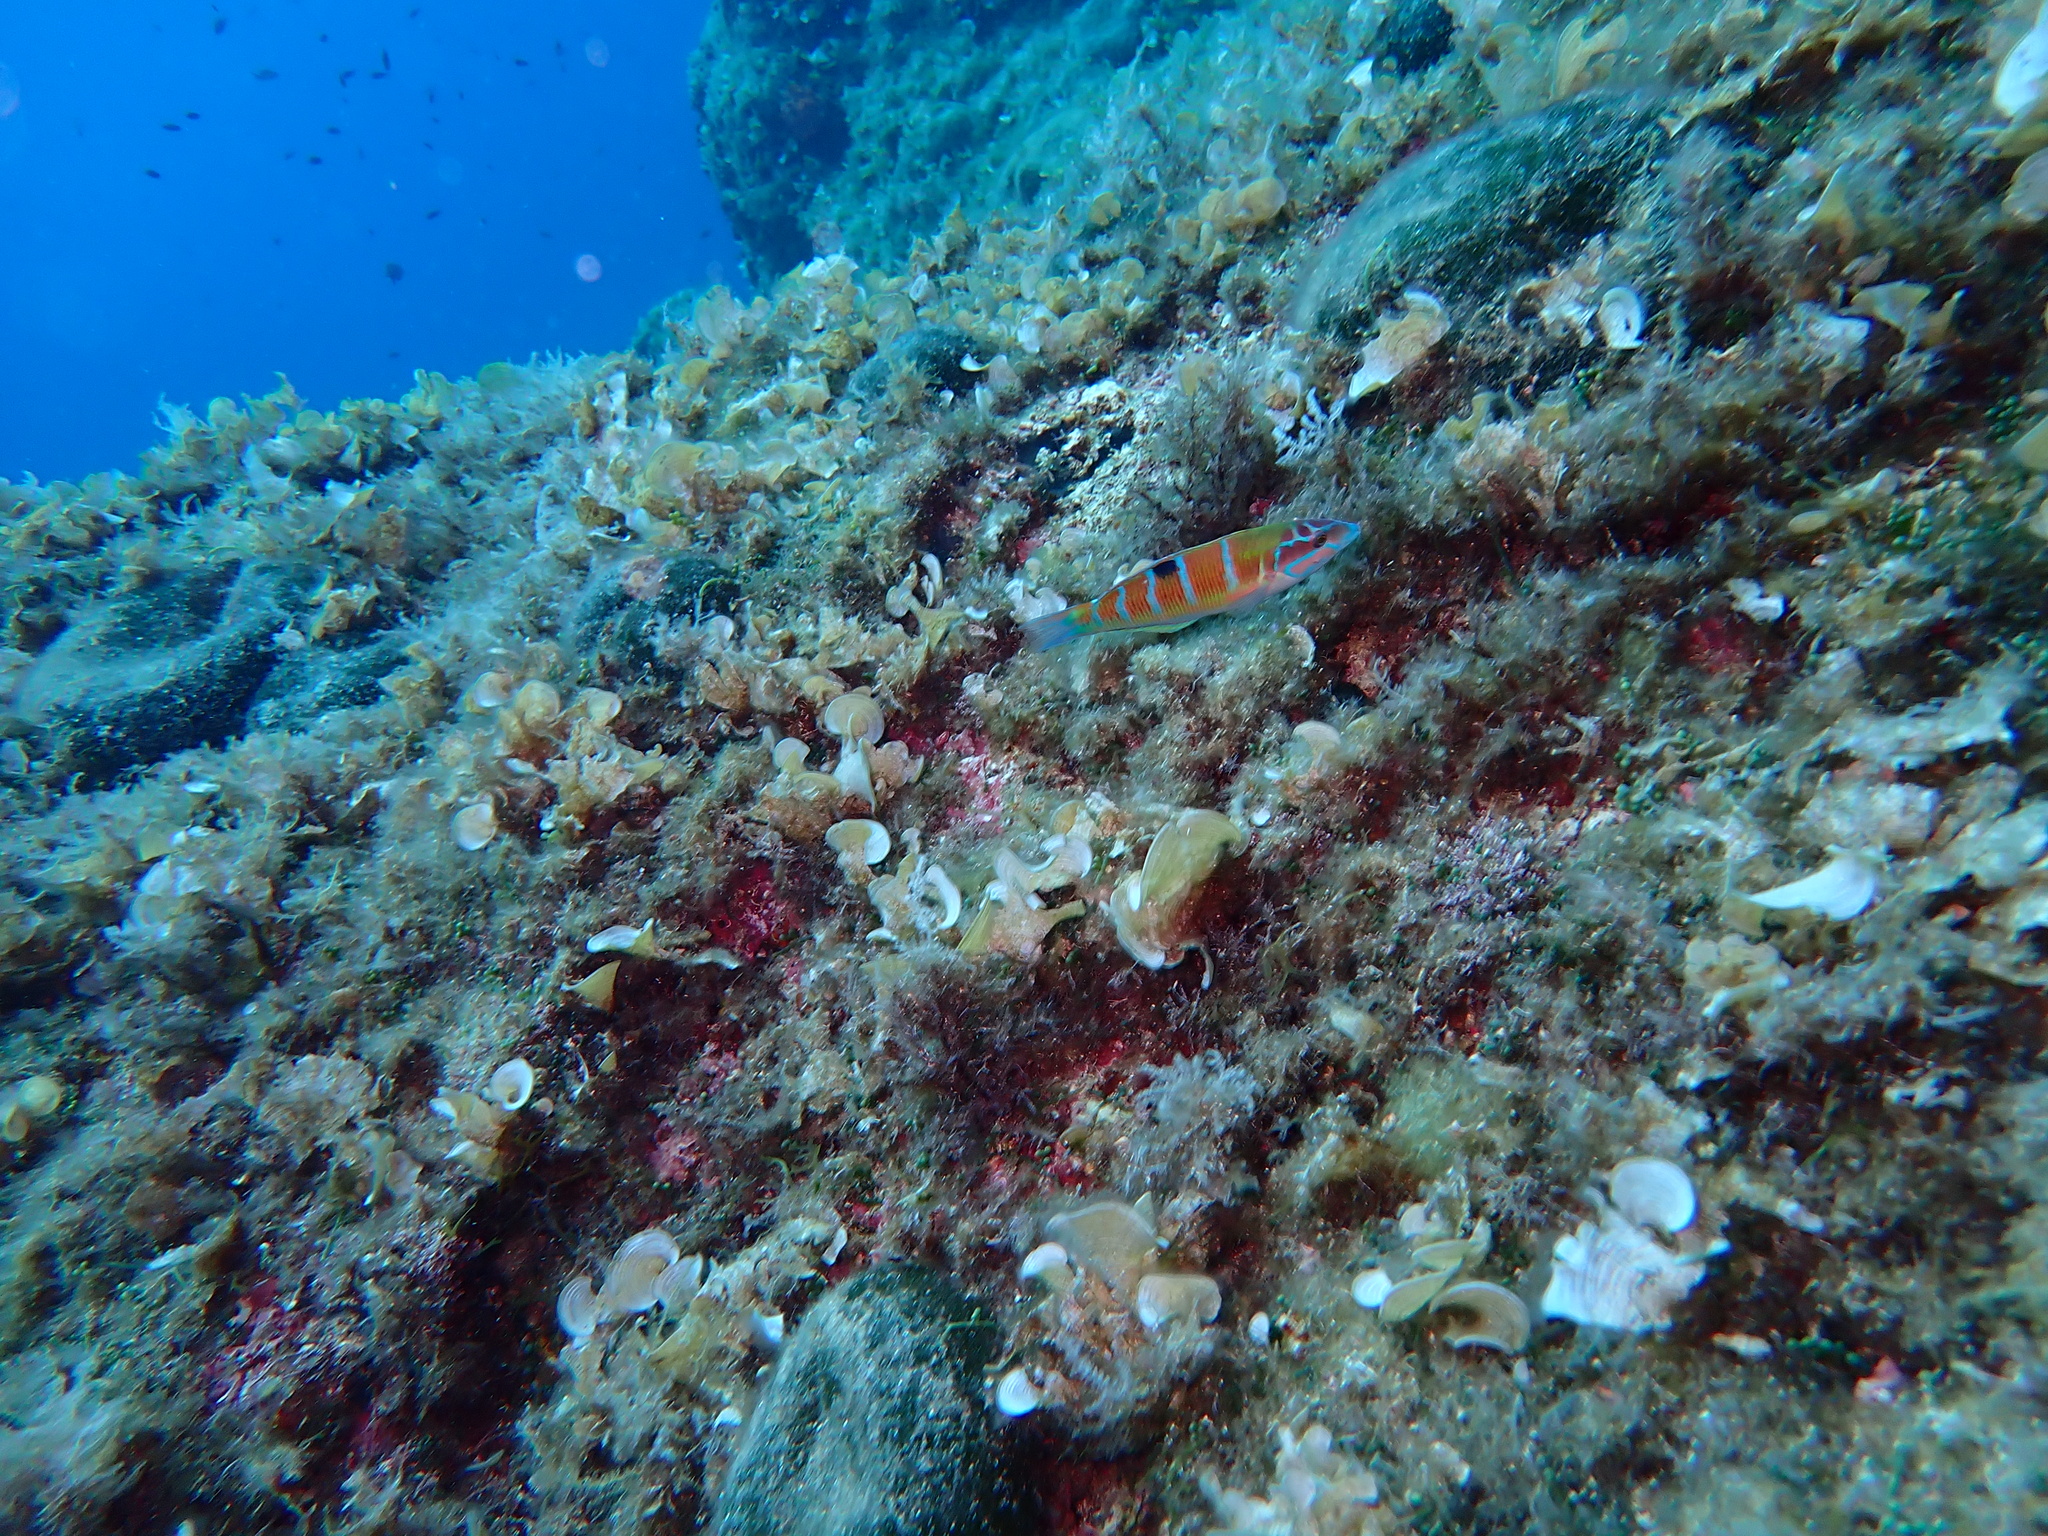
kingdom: Animalia
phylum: Chordata
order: Perciformes
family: Labridae
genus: Thalassoma
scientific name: Thalassoma pavo
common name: Ornate wrasse
